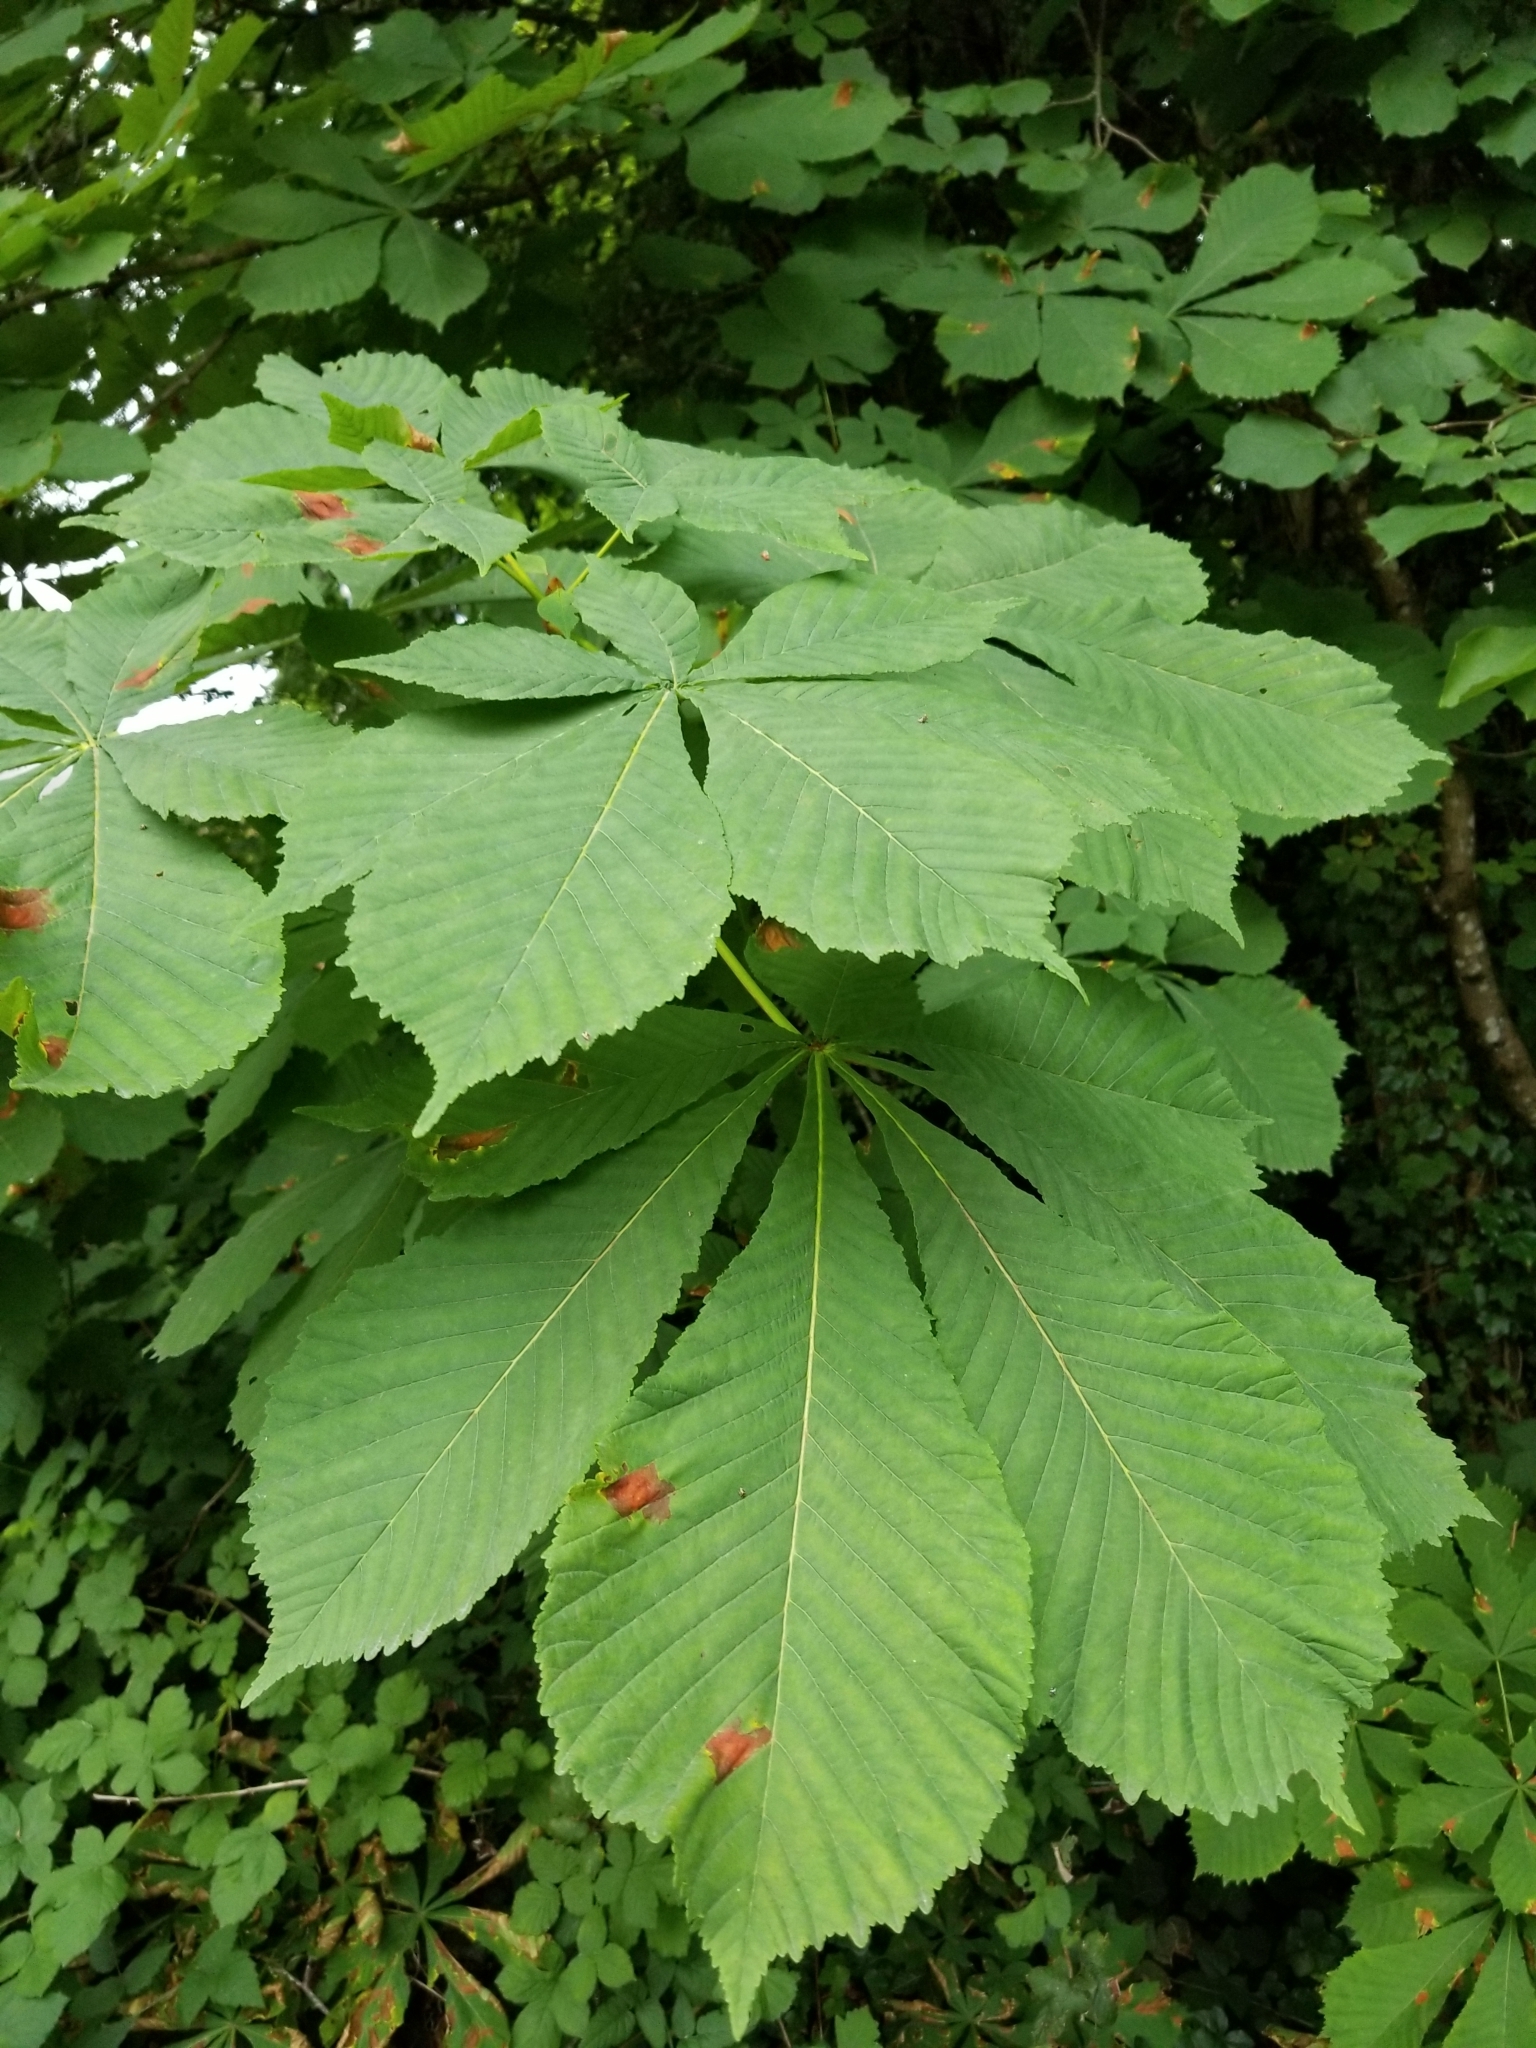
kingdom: Plantae
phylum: Tracheophyta
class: Magnoliopsida
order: Sapindales
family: Sapindaceae
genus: Aesculus
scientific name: Aesculus hippocastanum
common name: Horse-chestnut
